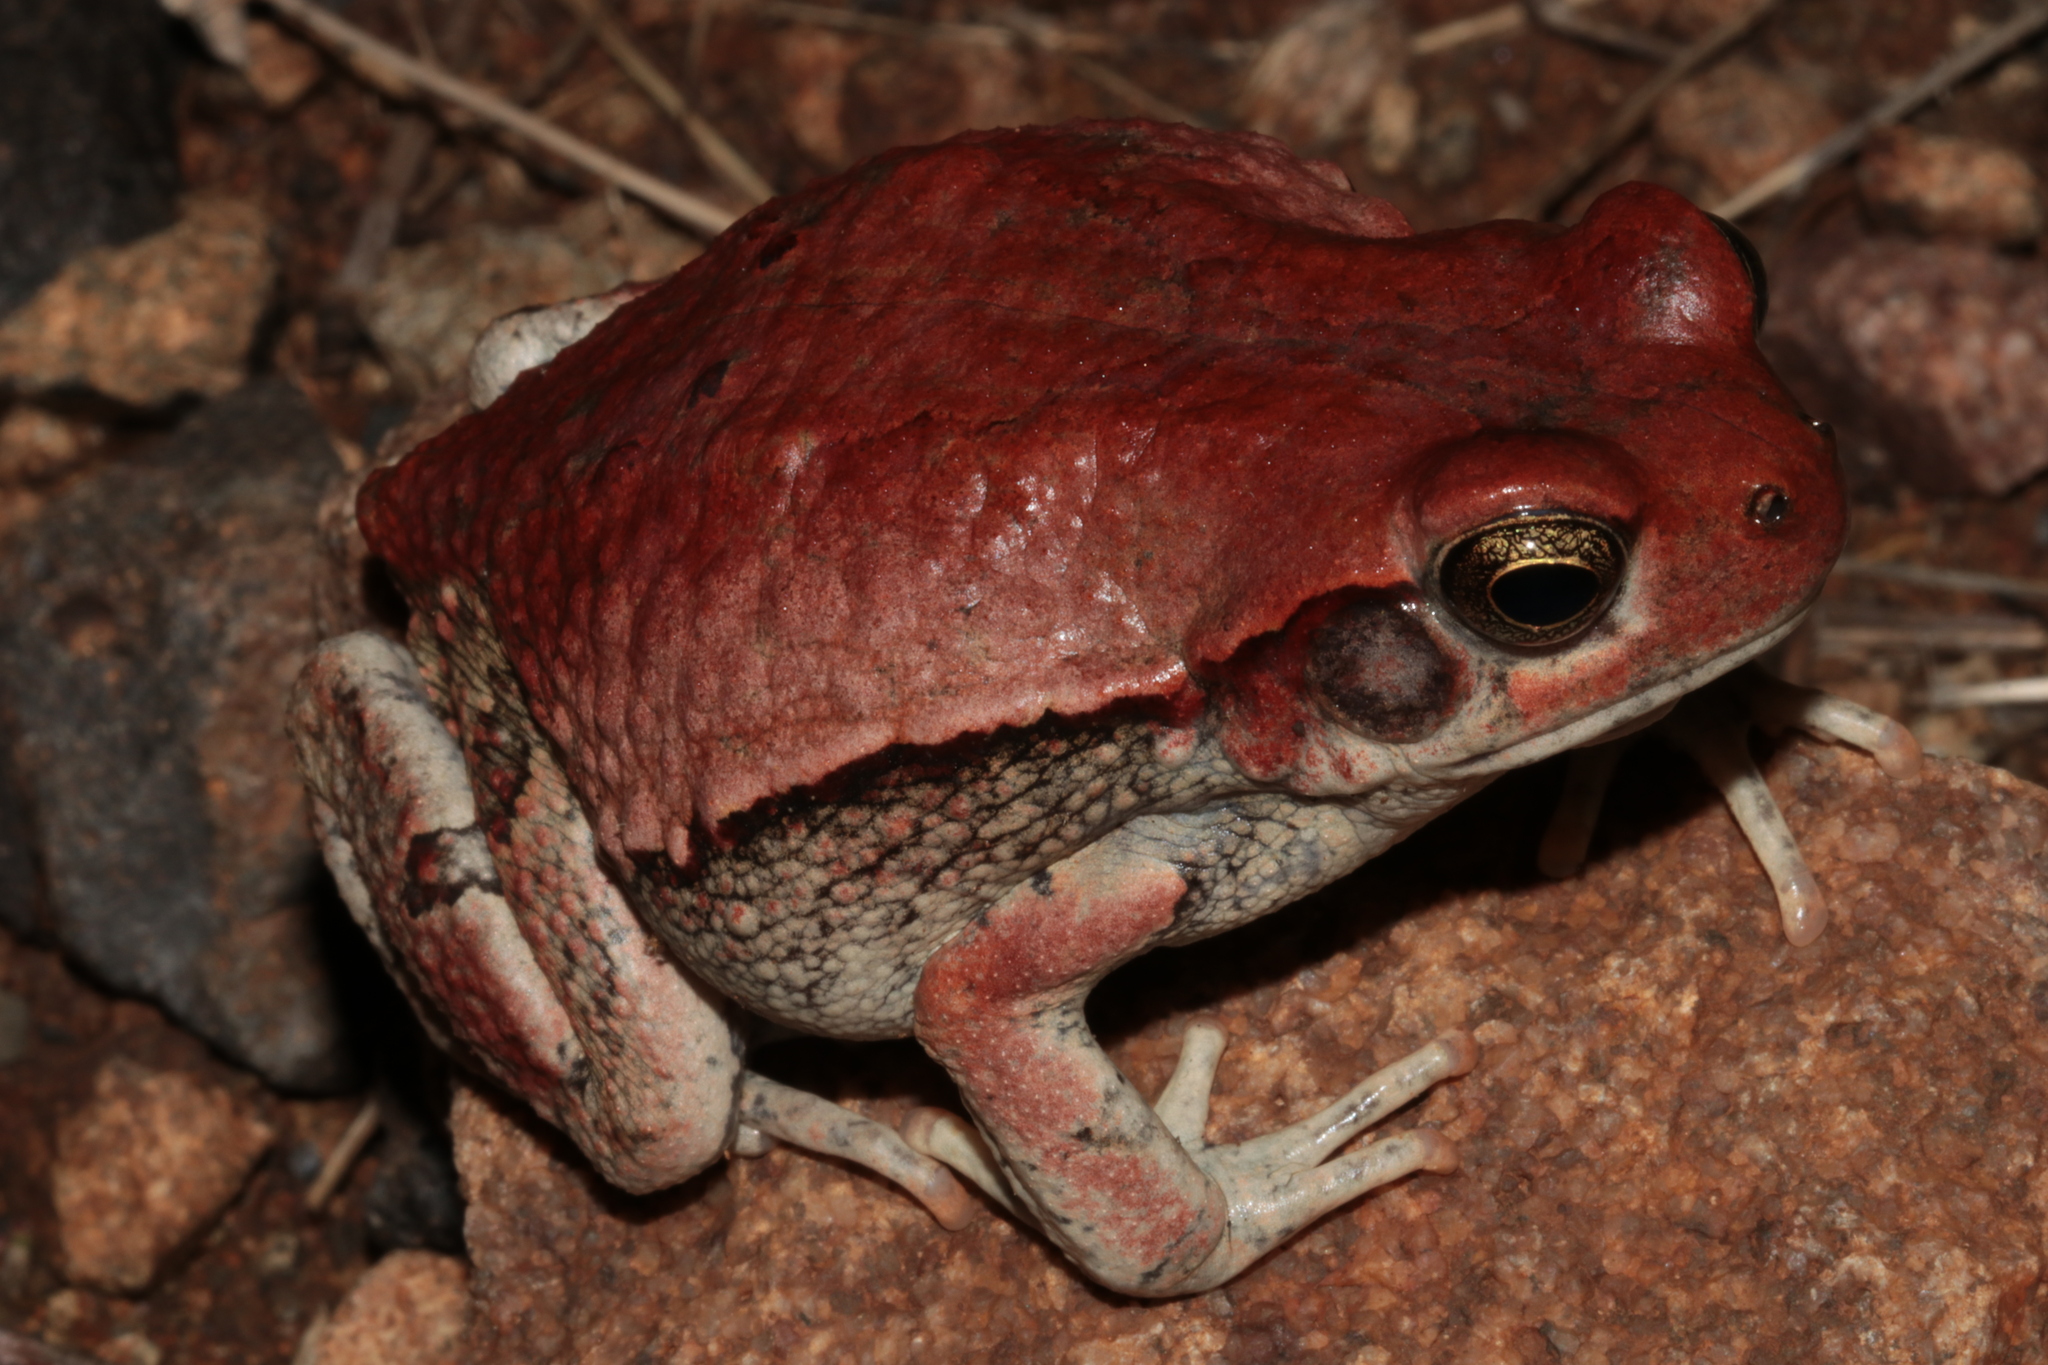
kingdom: Animalia
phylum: Chordata
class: Amphibia
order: Anura
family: Bufonidae
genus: Schismaderma
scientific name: Schismaderma carens
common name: African split-skin toad
